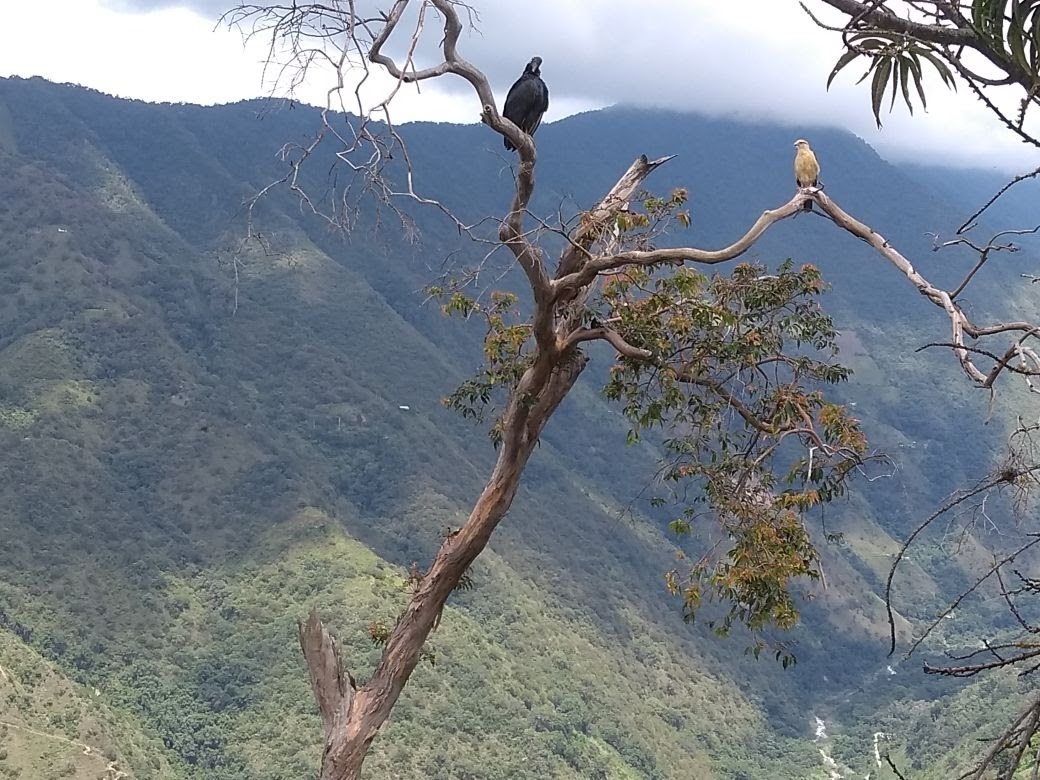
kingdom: Animalia
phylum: Chordata
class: Aves
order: Falconiformes
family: Falconidae
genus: Daptrius
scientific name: Daptrius
